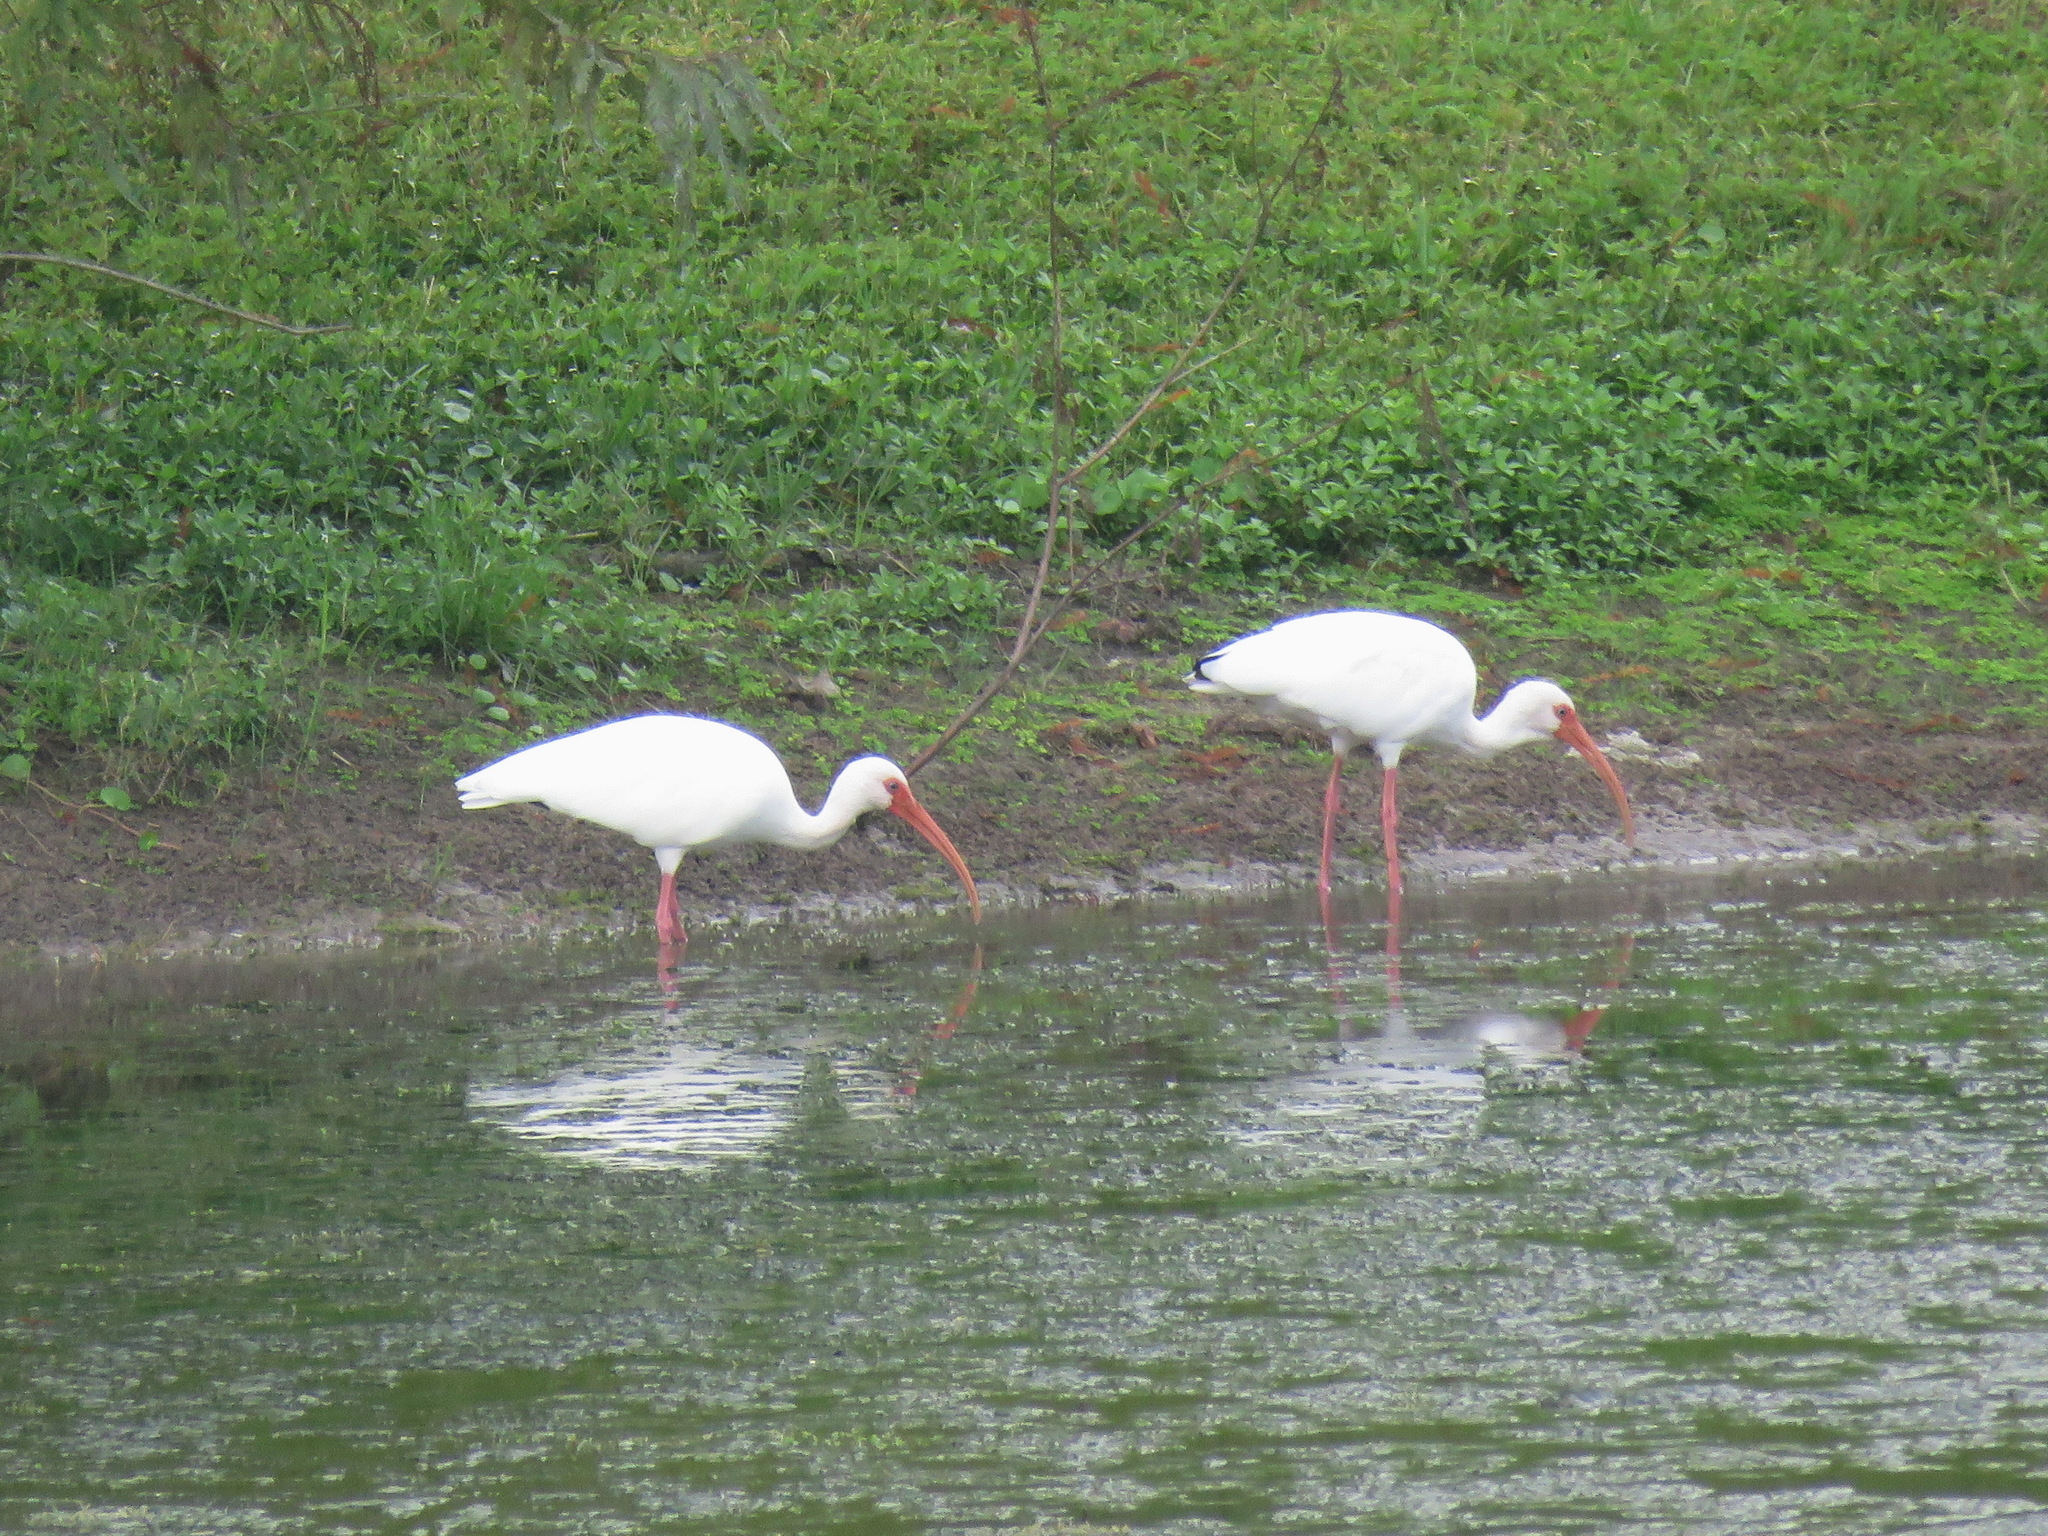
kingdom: Animalia
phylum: Chordata
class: Aves
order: Pelecaniformes
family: Threskiornithidae
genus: Eudocimus
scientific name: Eudocimus albus
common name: White ibis
